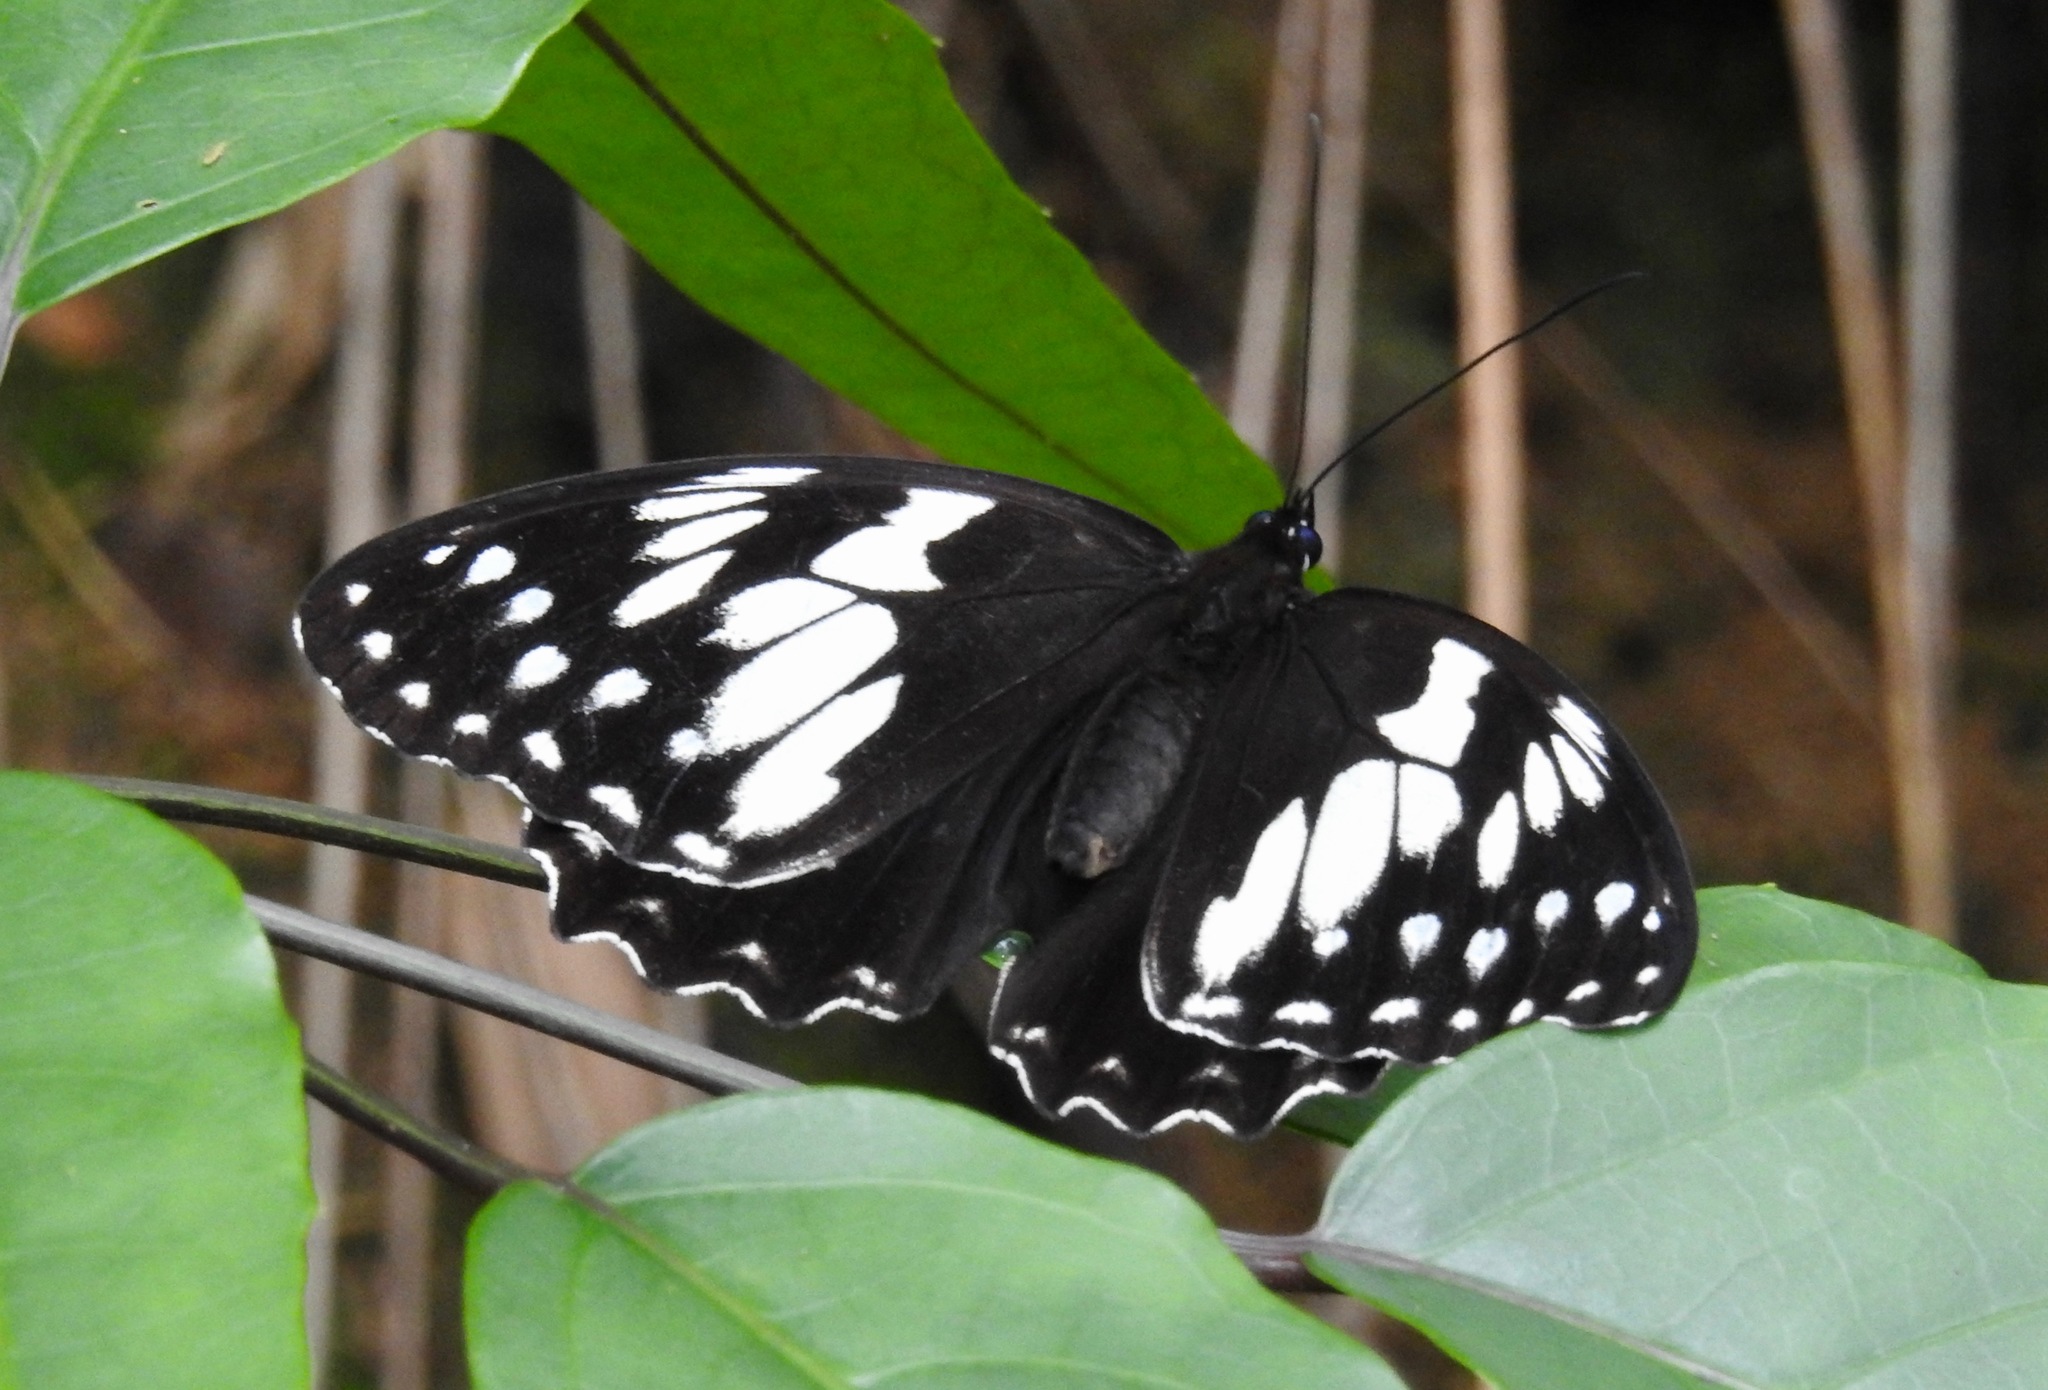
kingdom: Animalia
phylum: Arthropoda
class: Insecta
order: Lepidoptera
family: Nymphalidae
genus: Penthema
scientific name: Penthema adelma
